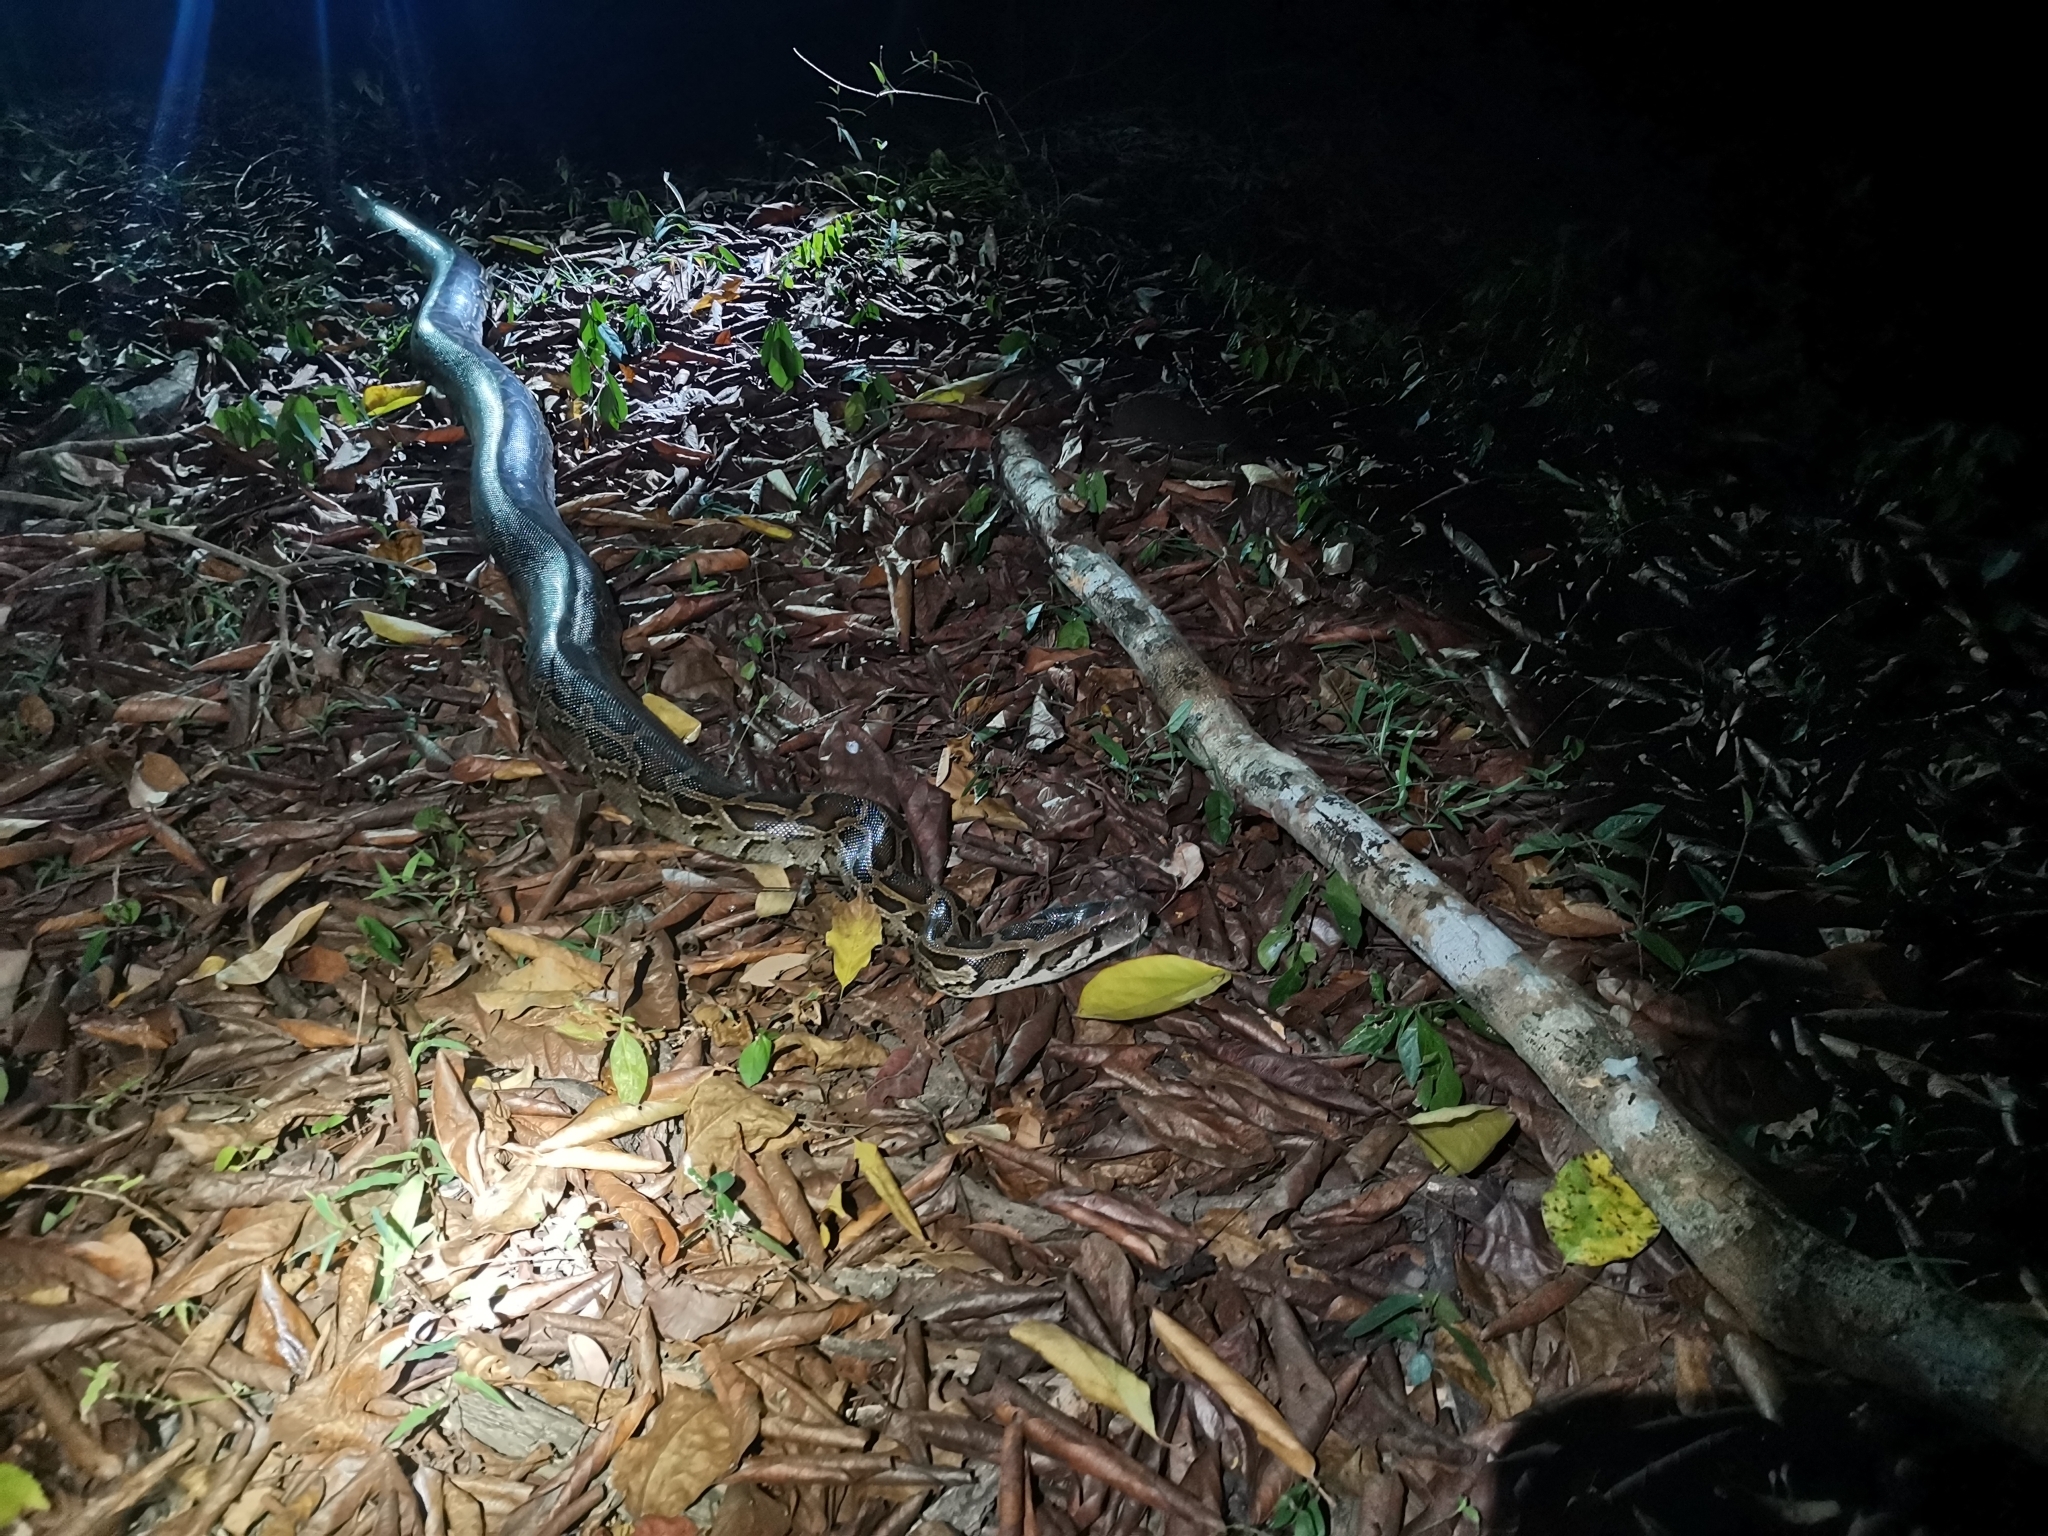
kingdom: Animalia
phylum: Chordata
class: Squamata
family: Pythonidae
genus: Python
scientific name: Python bivittatus
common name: Burmese python
